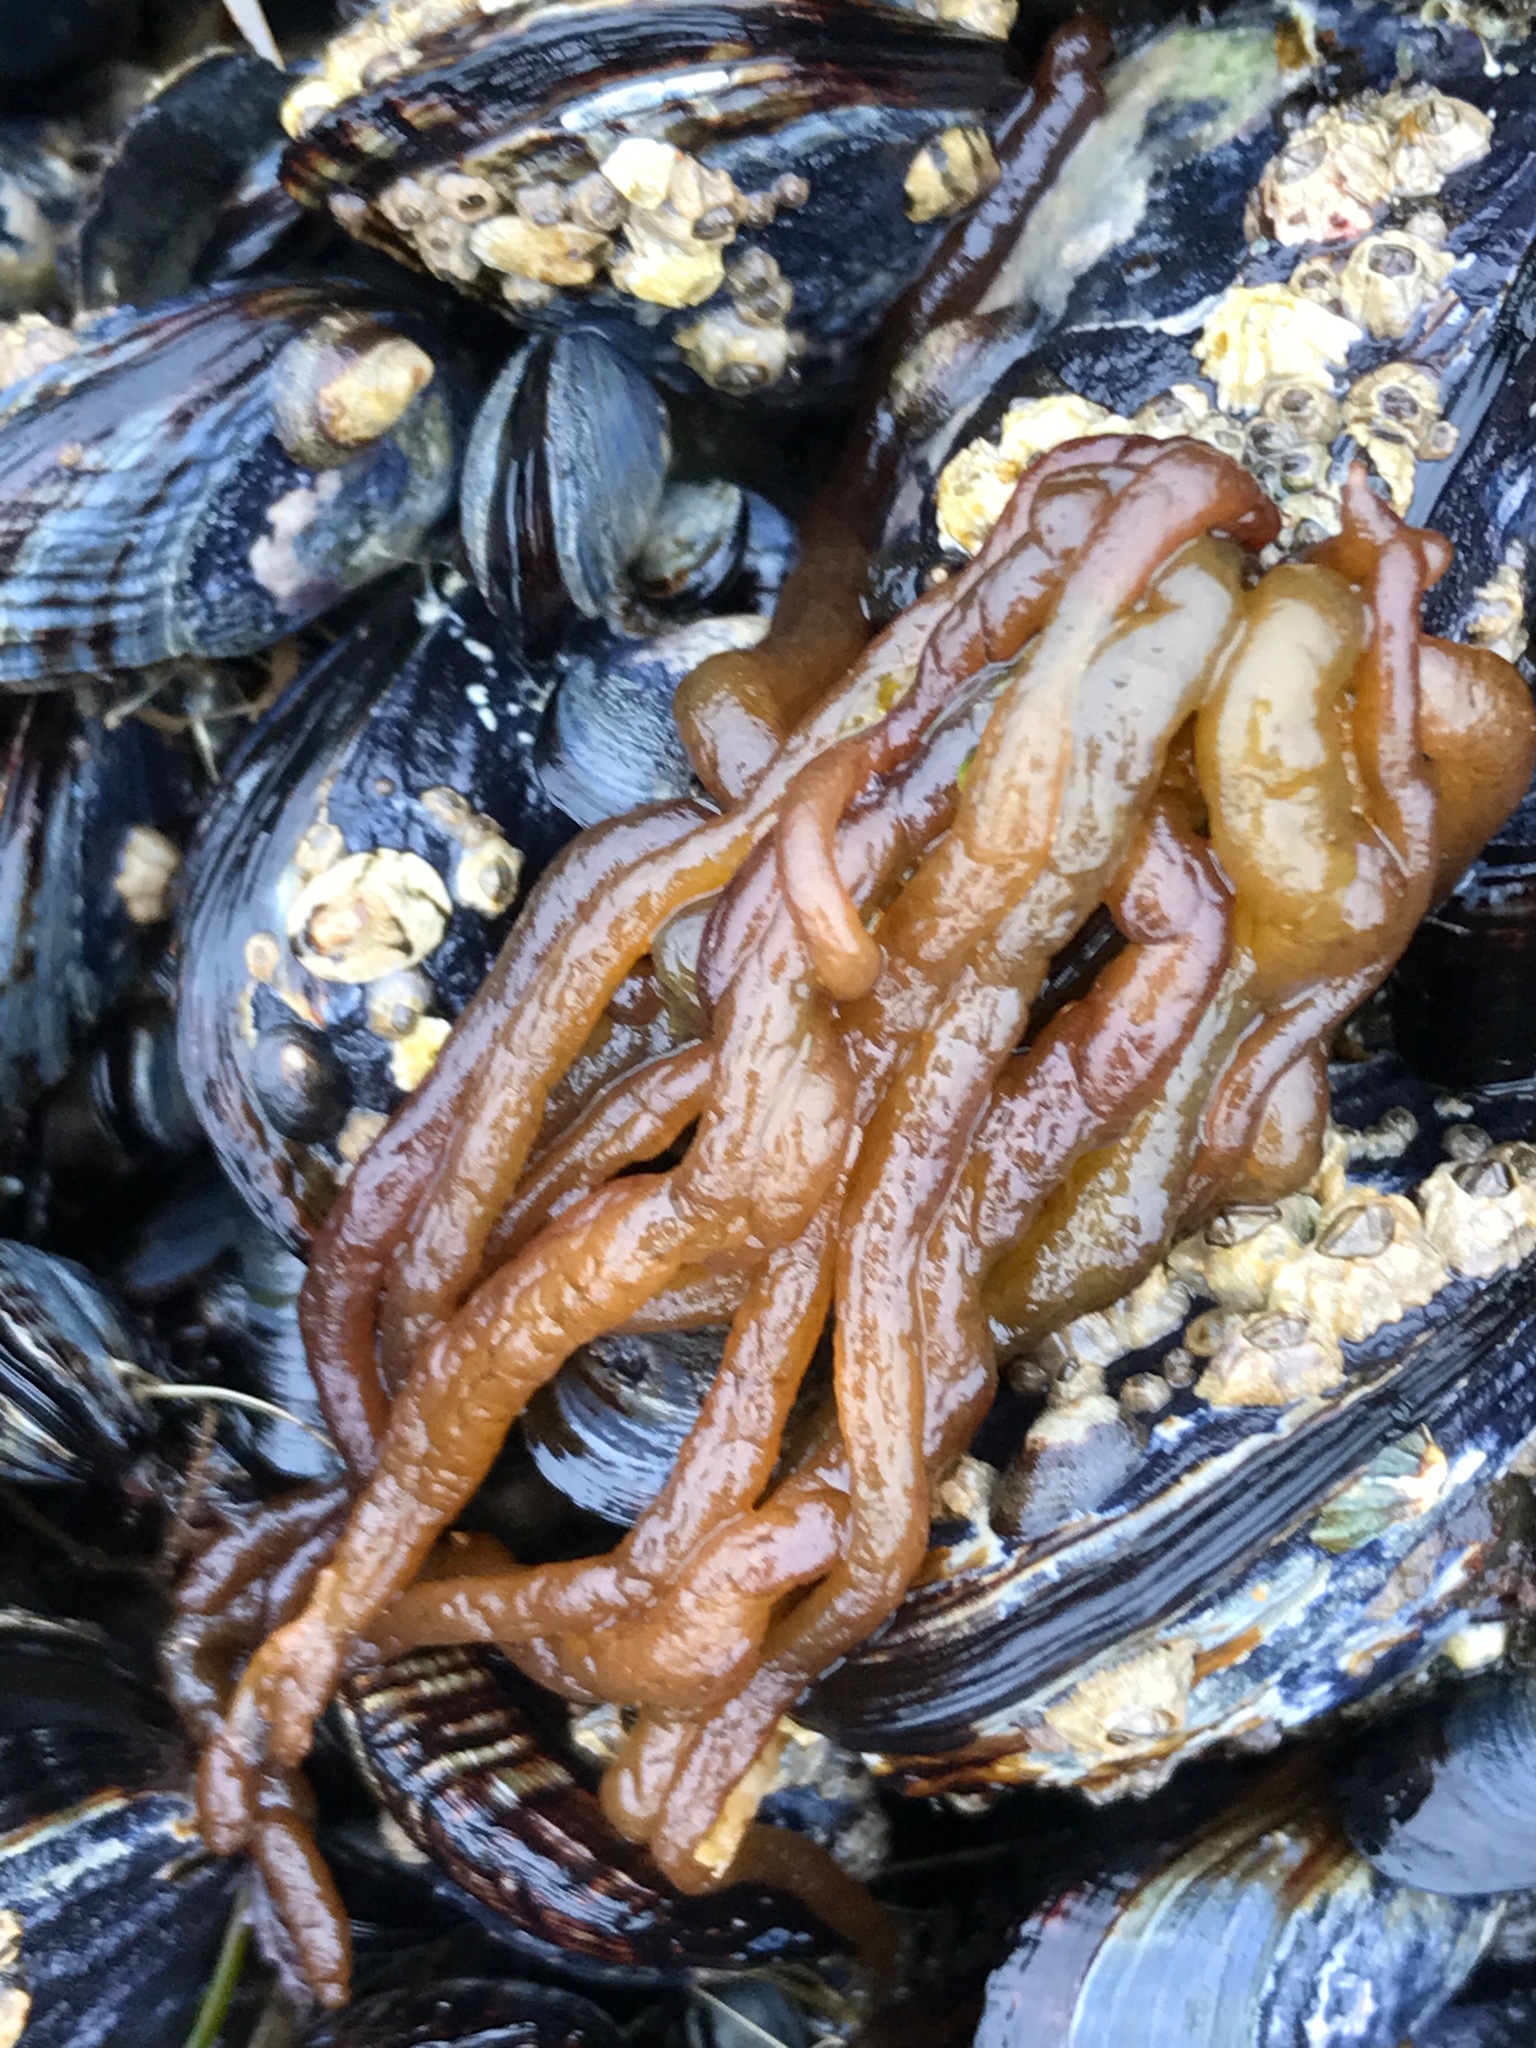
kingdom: Plantae
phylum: Rhodophyta
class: Florideophyceae
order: Nemaliales
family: Nemaliaceae
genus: Nemalion
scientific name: Nemalion elminthoides
